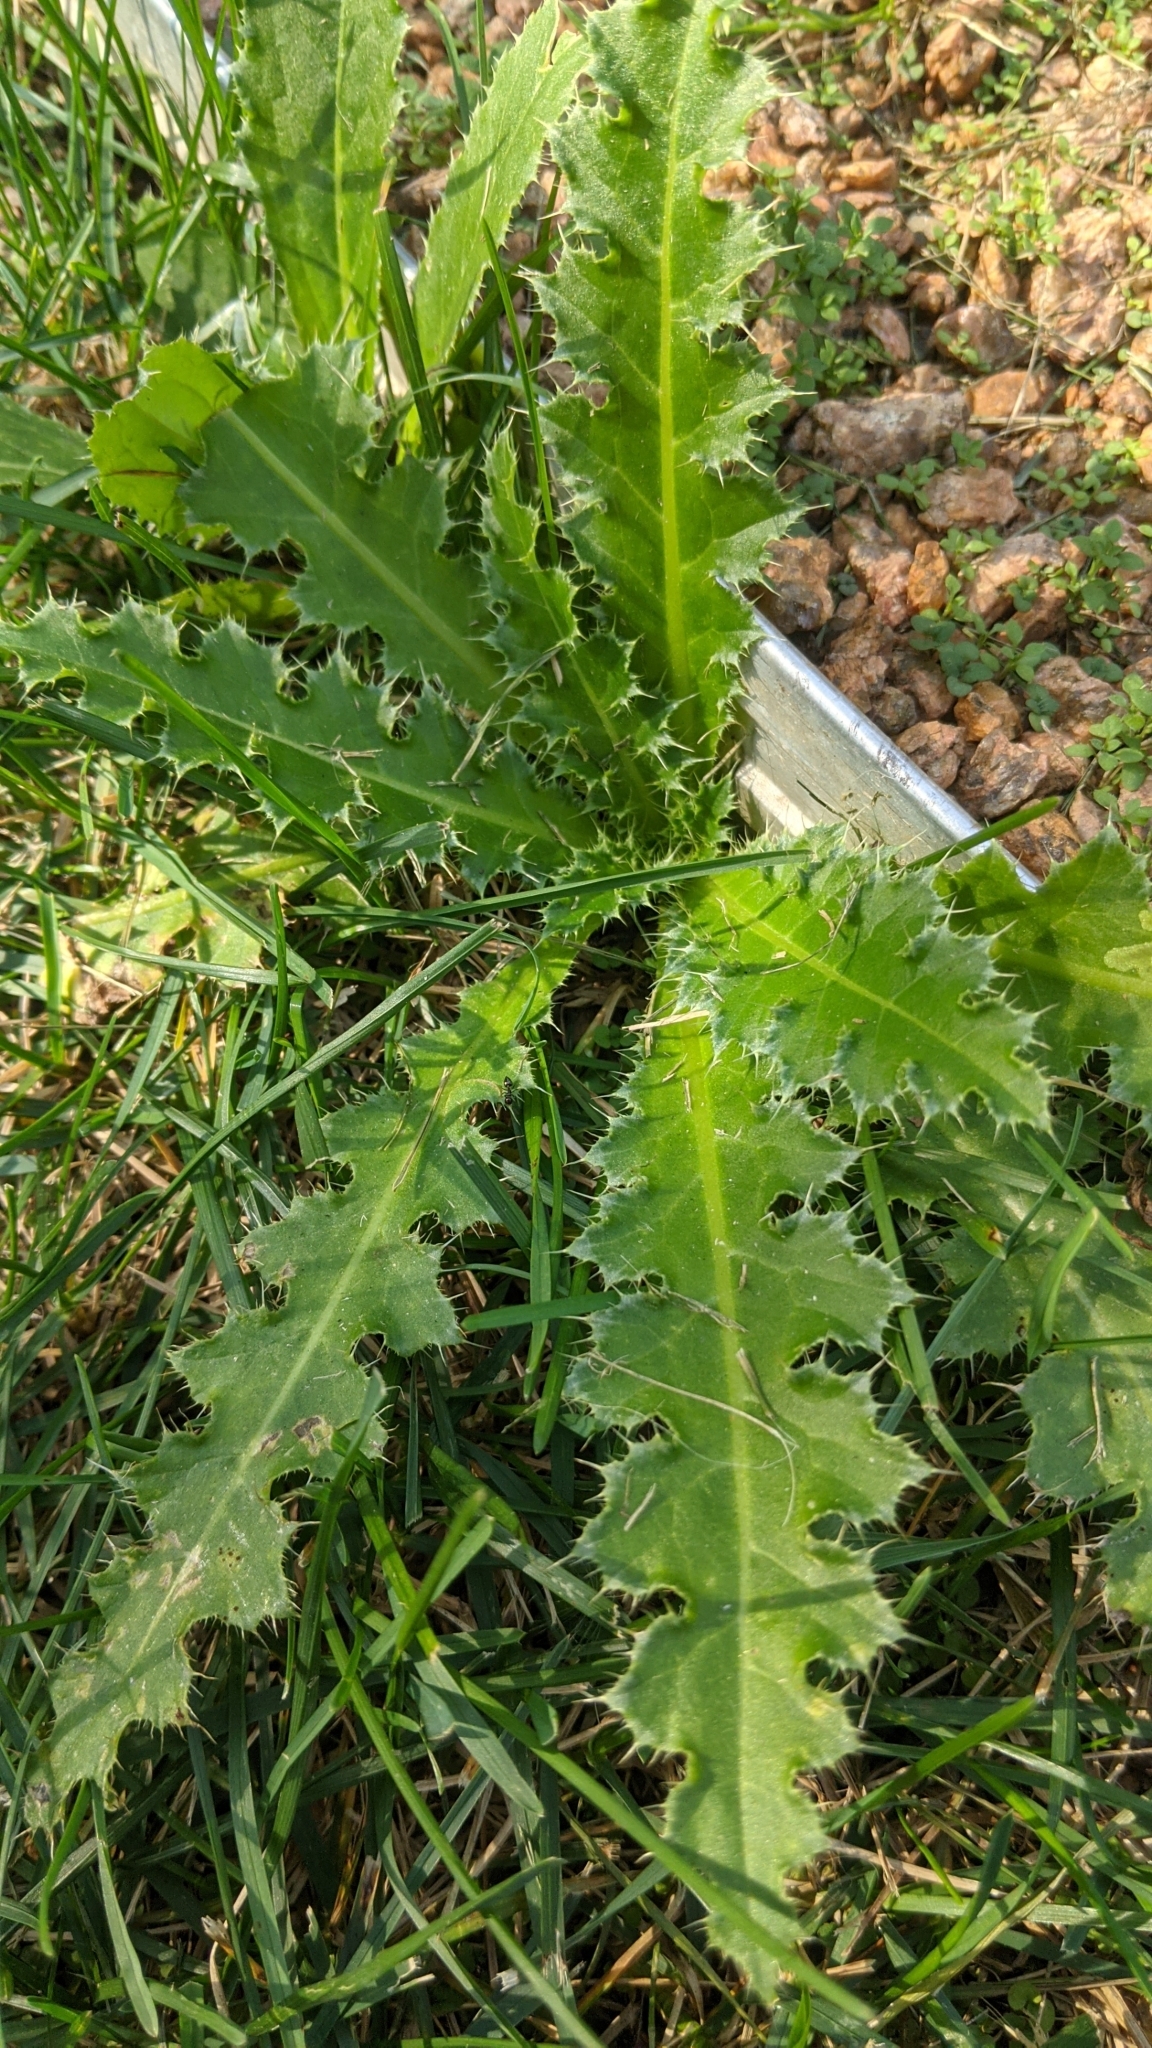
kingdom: Plantae
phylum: Tracheophyta
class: Magnoliopsida
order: Asterales
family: Asteraceae
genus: Carduus
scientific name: Carduus nutans
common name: Musk thistle
